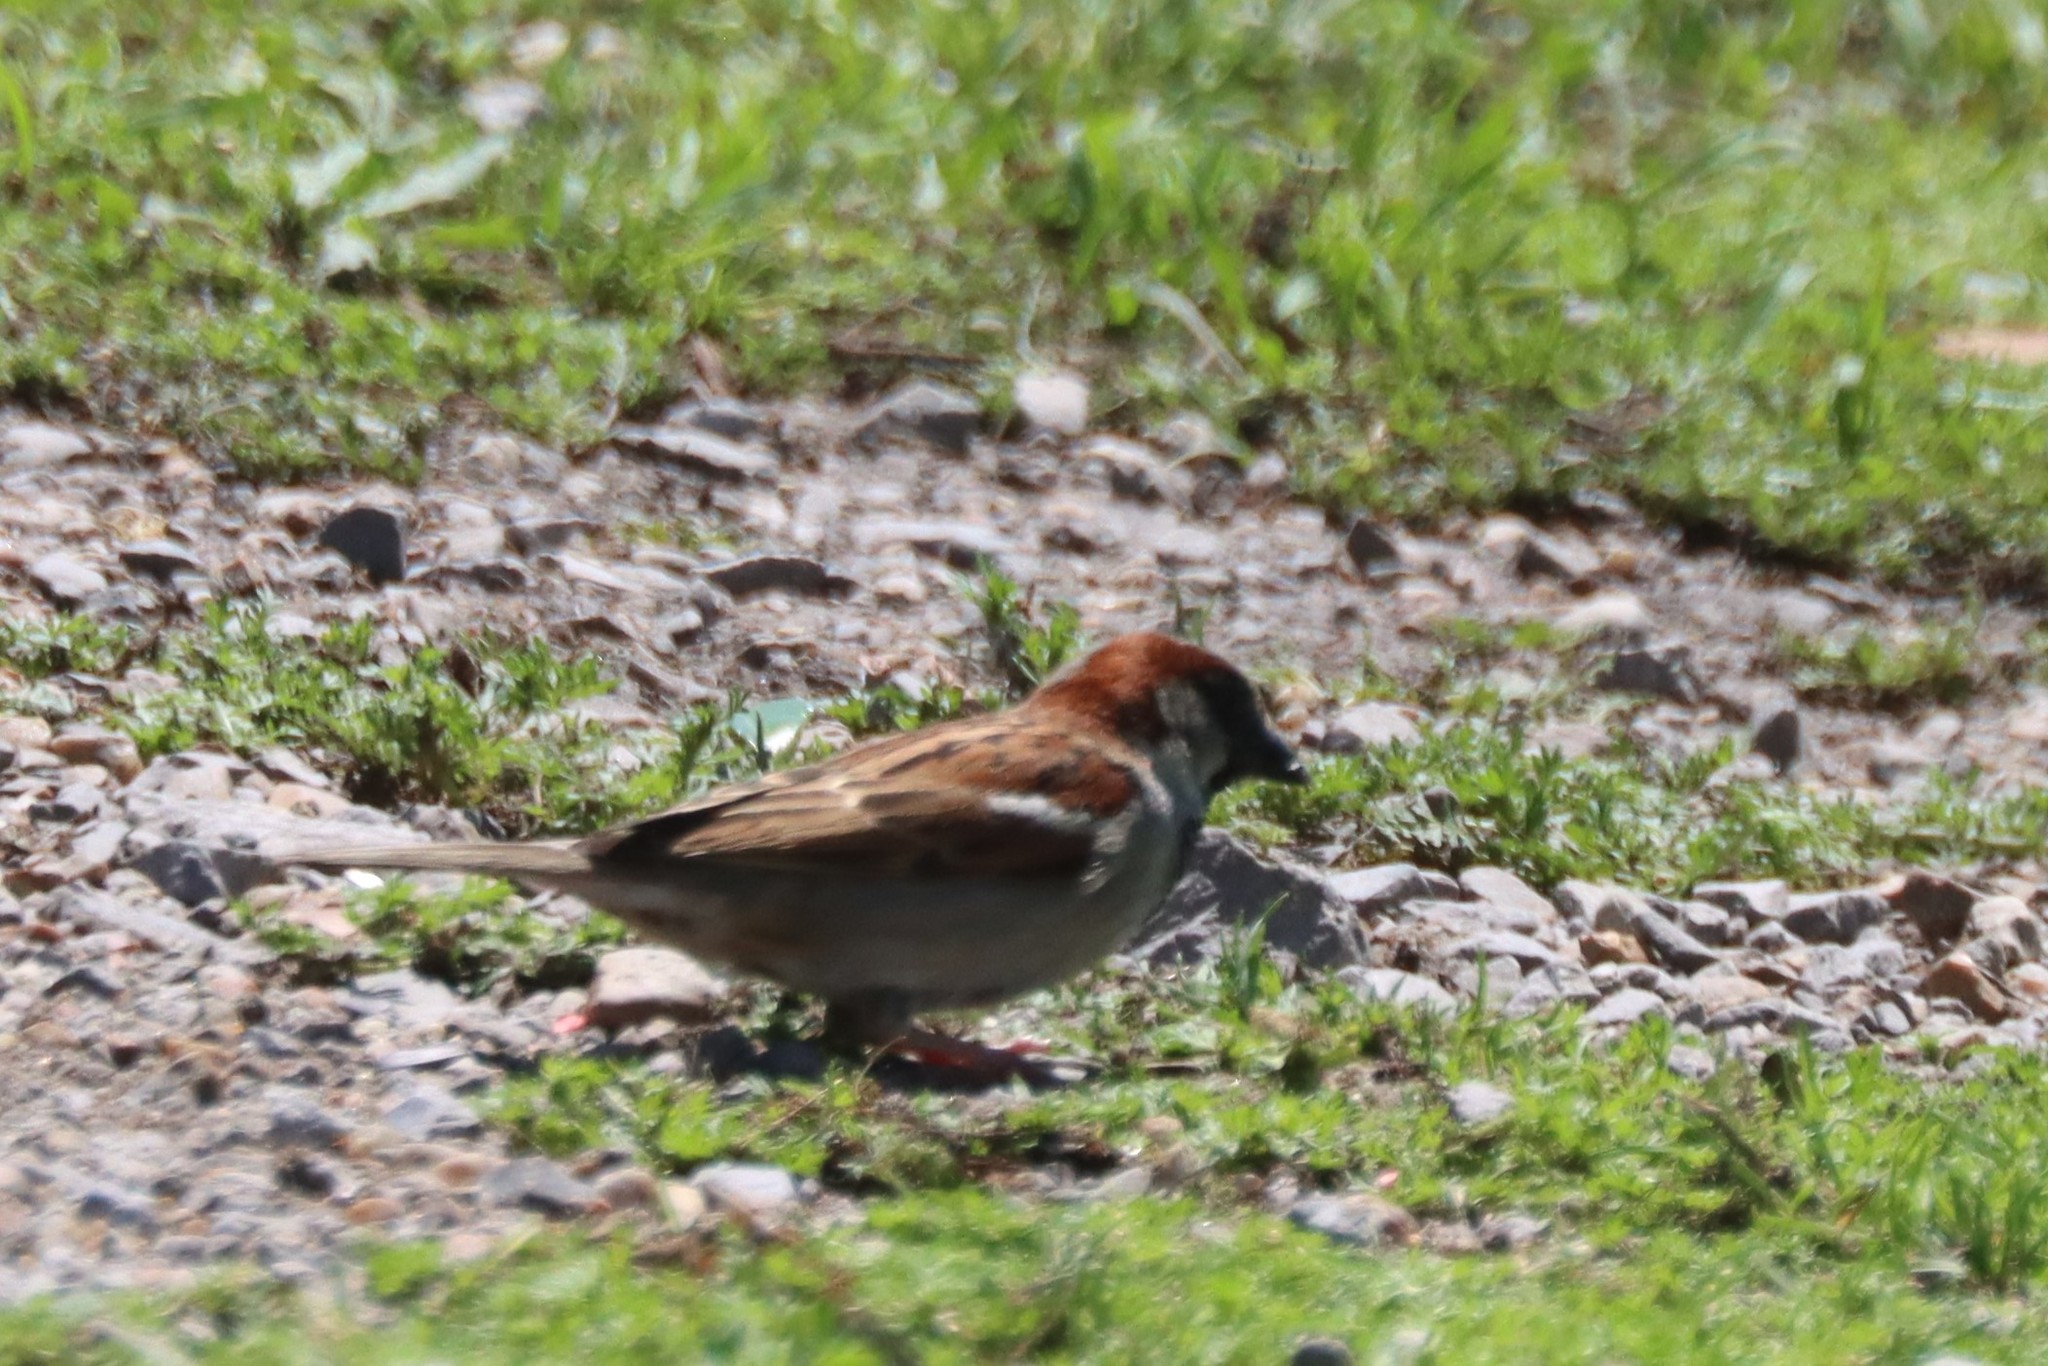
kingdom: Animalia
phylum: Chordata
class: Aves
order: Passeriformes
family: Passeridae
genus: Passer
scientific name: Passer domesticus
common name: House sparrow
